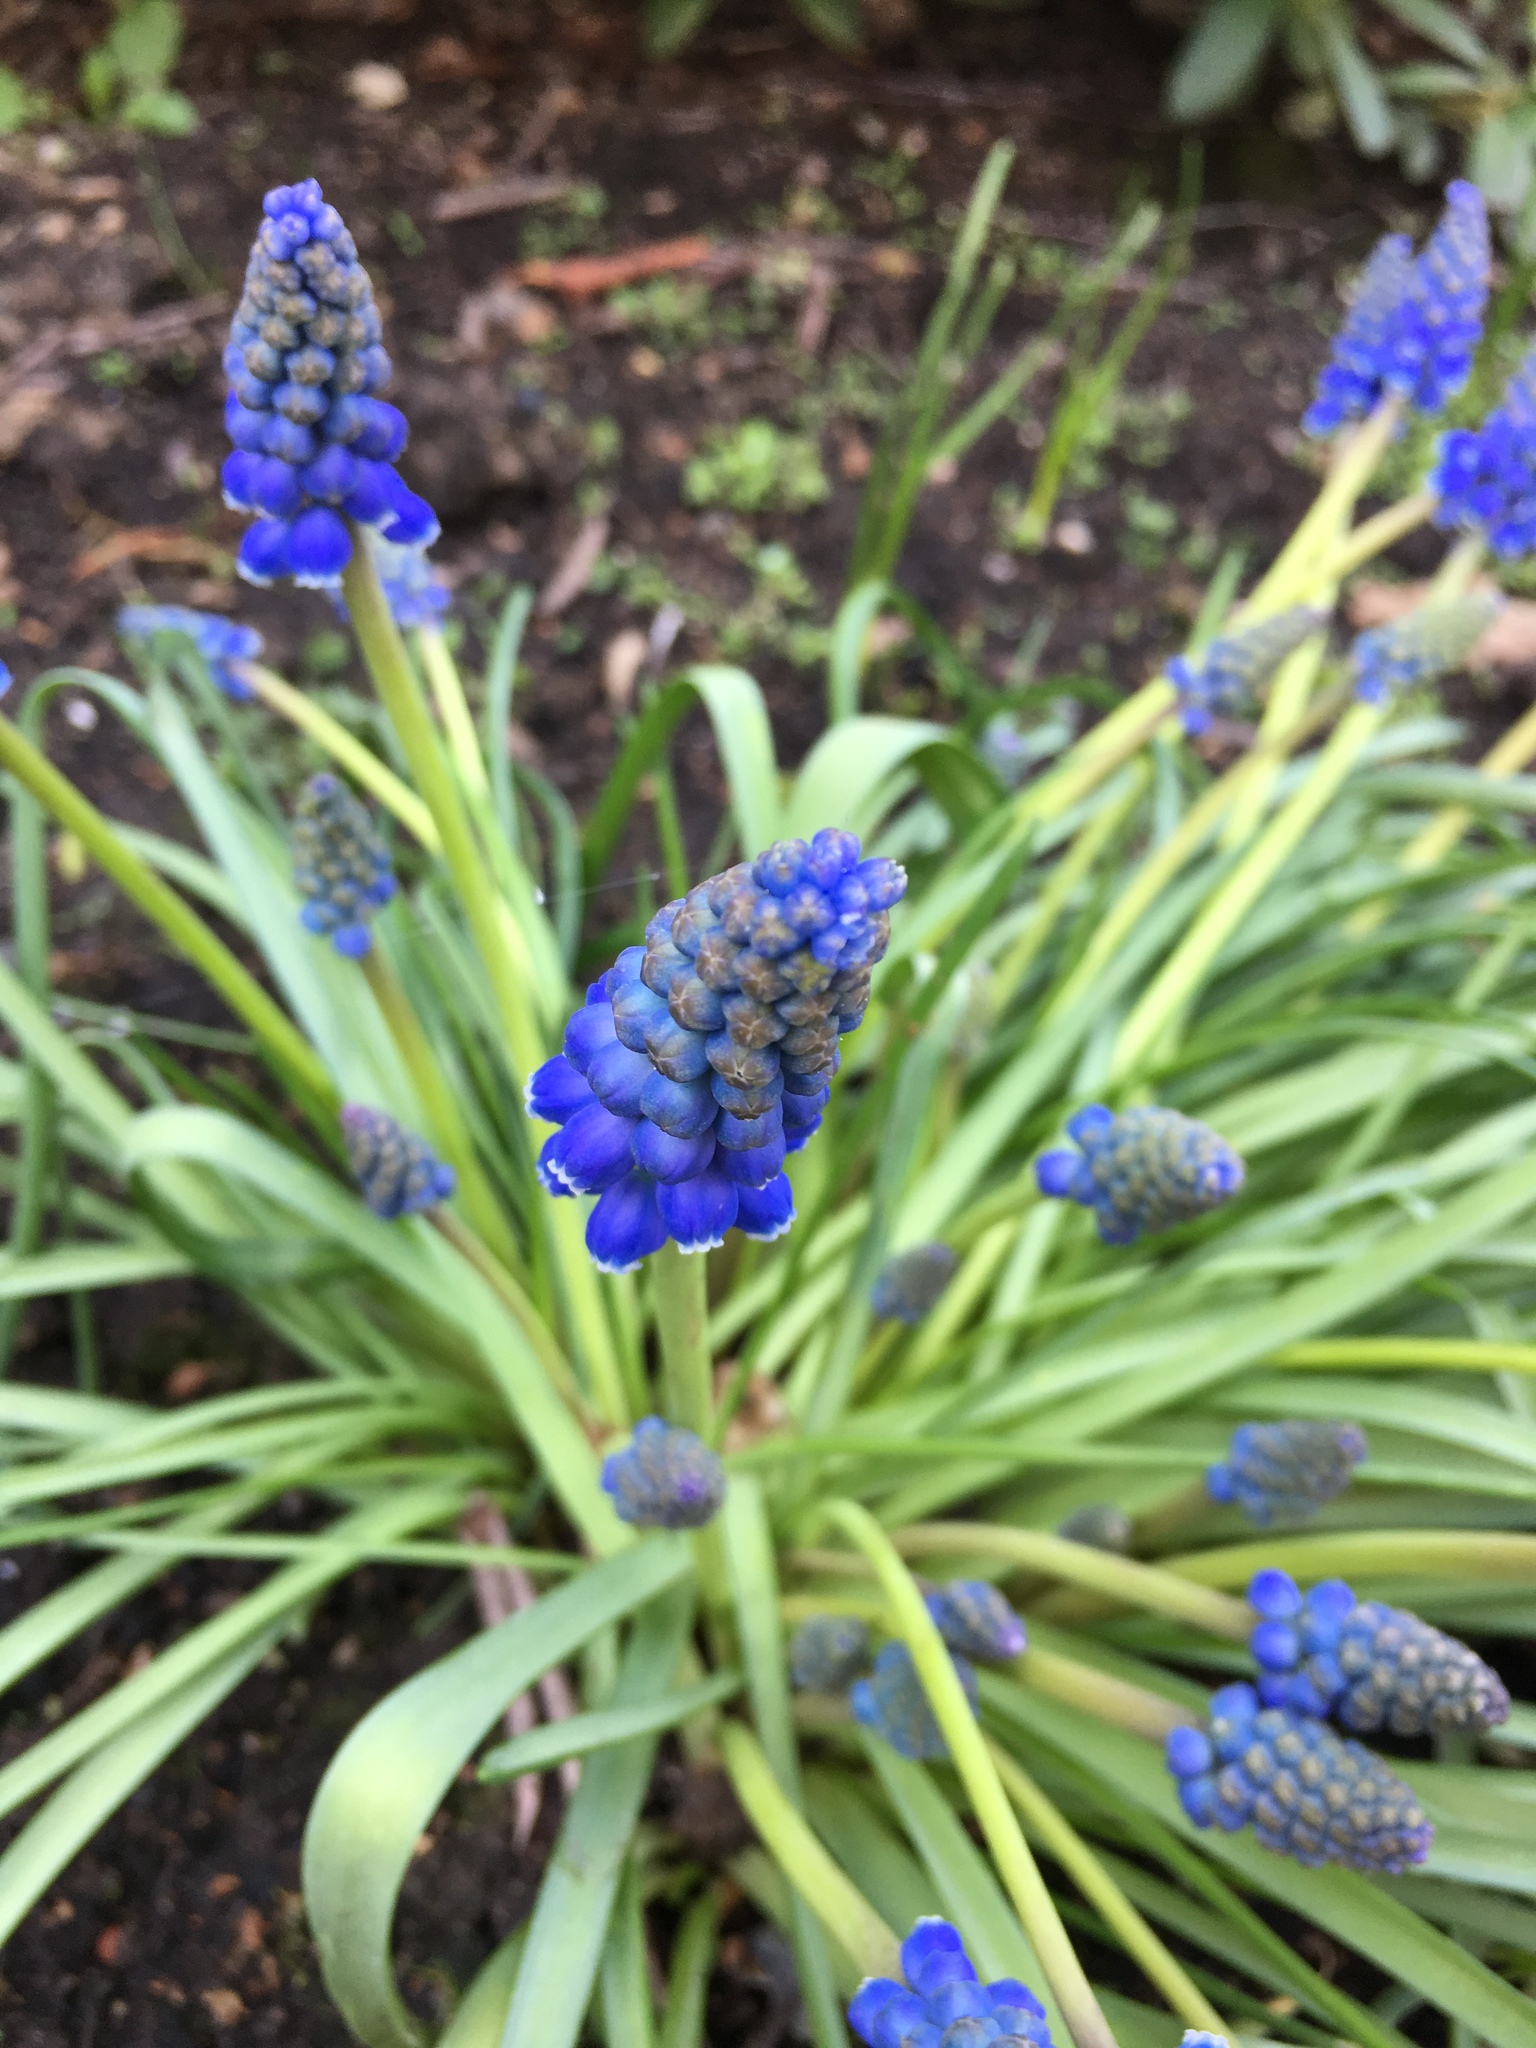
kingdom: Plantae
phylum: Tracheophyta
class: Liliopsida
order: Asparagales
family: Asparagaceae
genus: Muscari
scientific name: Muscari armeniacum
